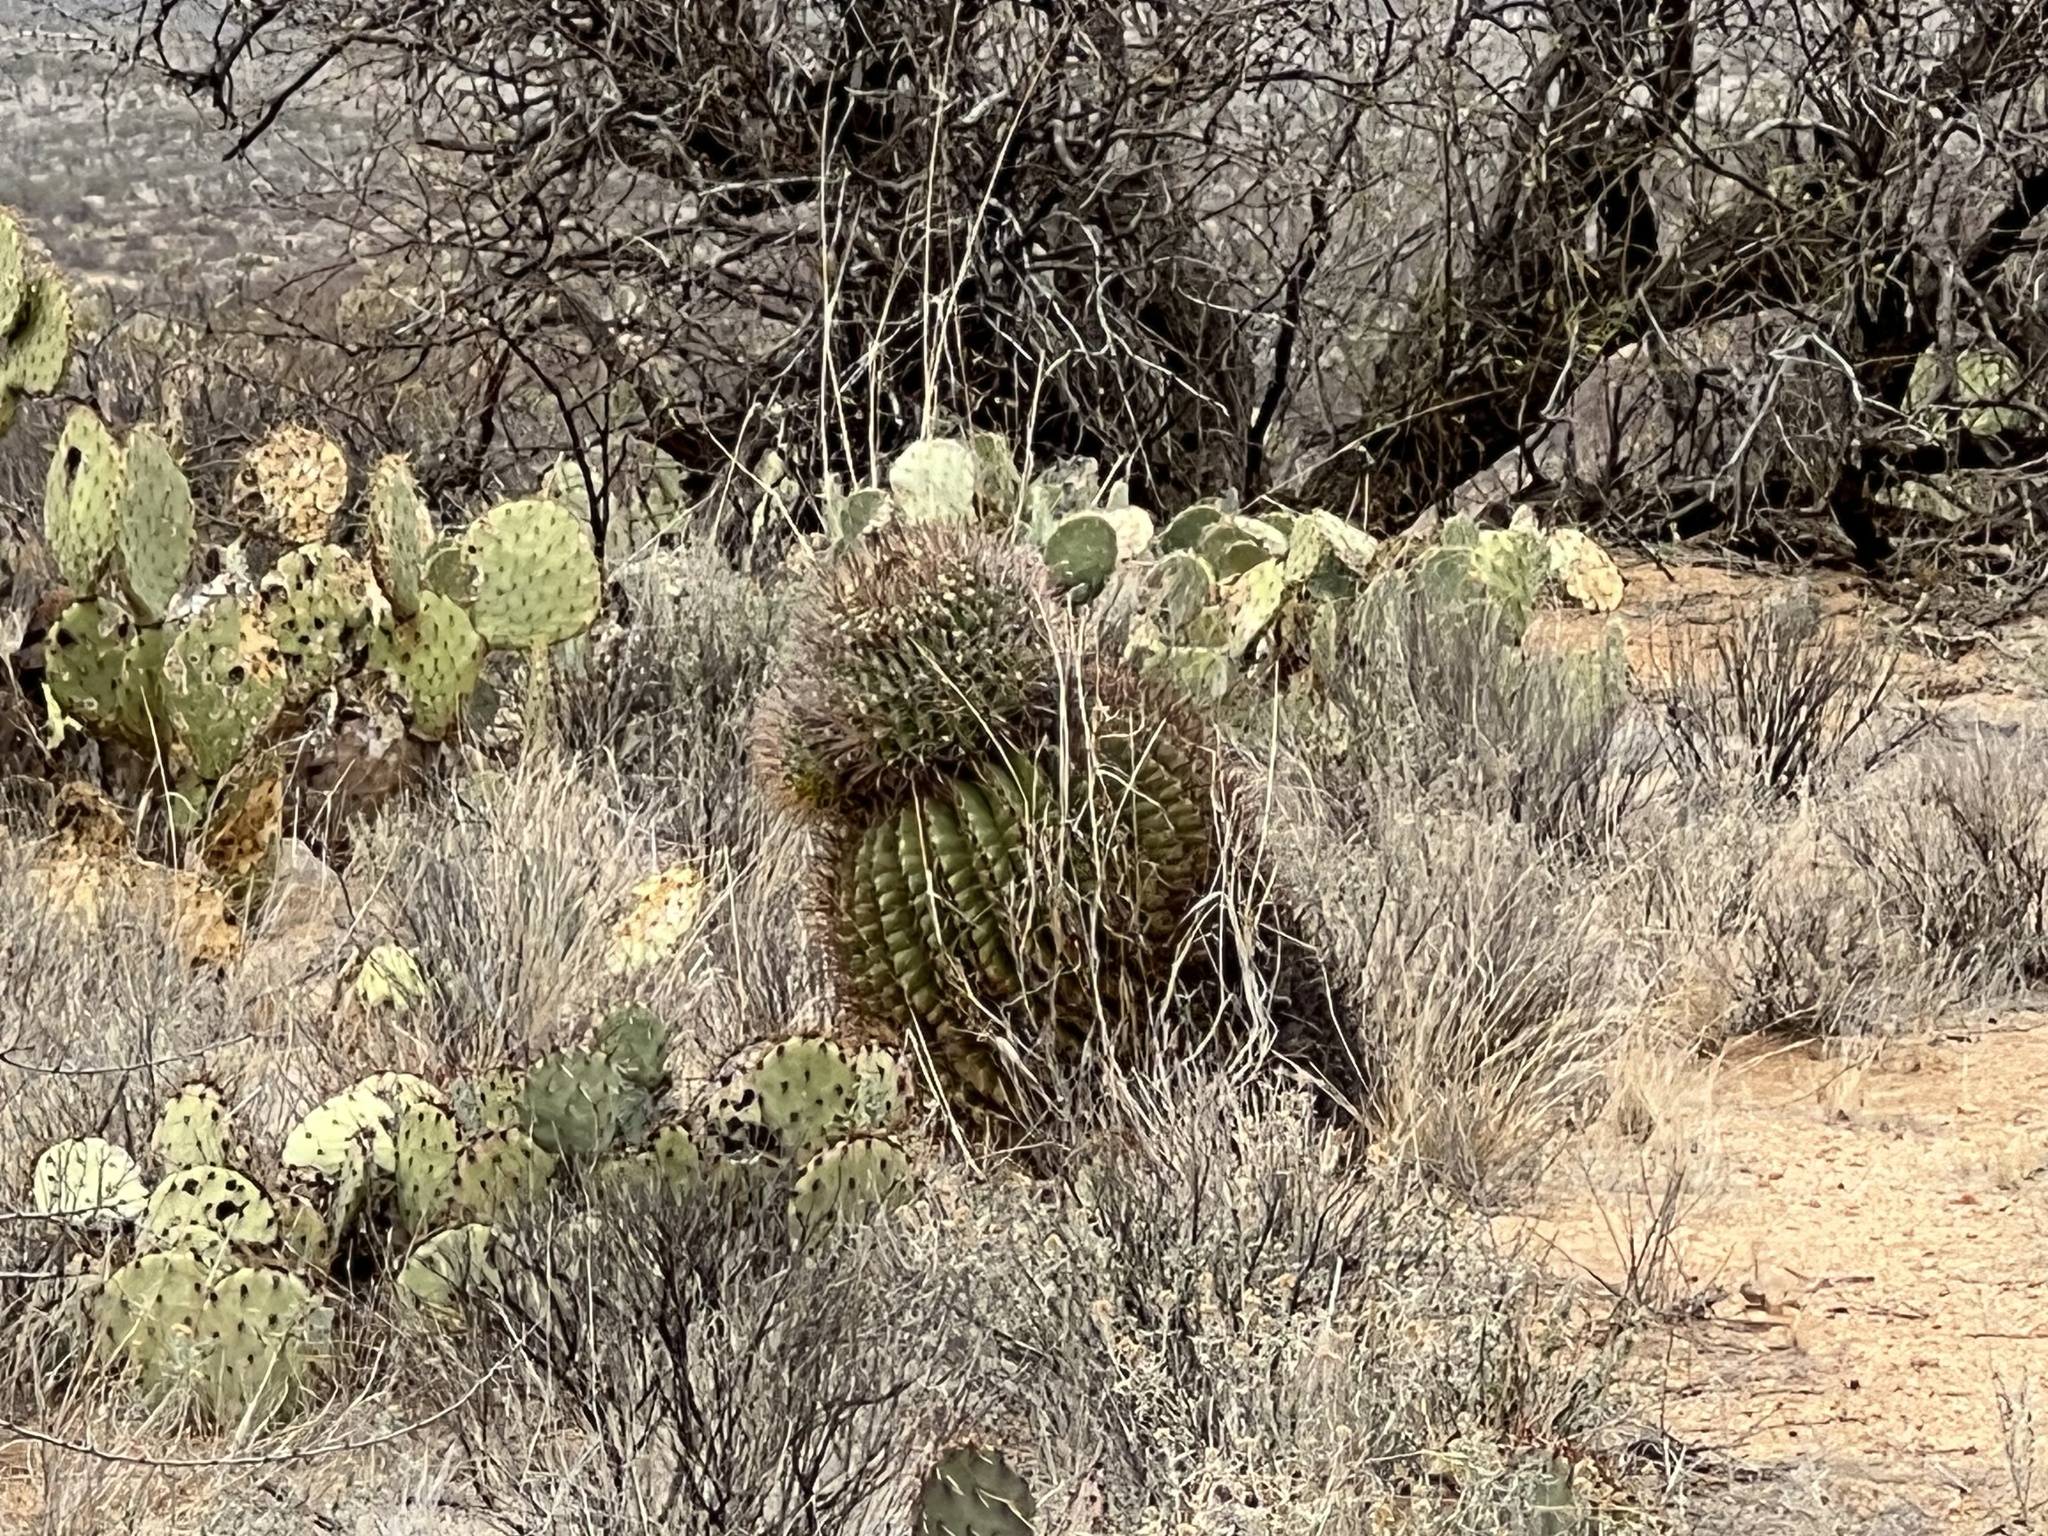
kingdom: Plantae
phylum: Tracheophyta
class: Magnoliopsida
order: Caryophyllales
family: Cactaceae
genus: Ferocactus
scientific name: Ferocactus wislizeni
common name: Candy barrel cactus
